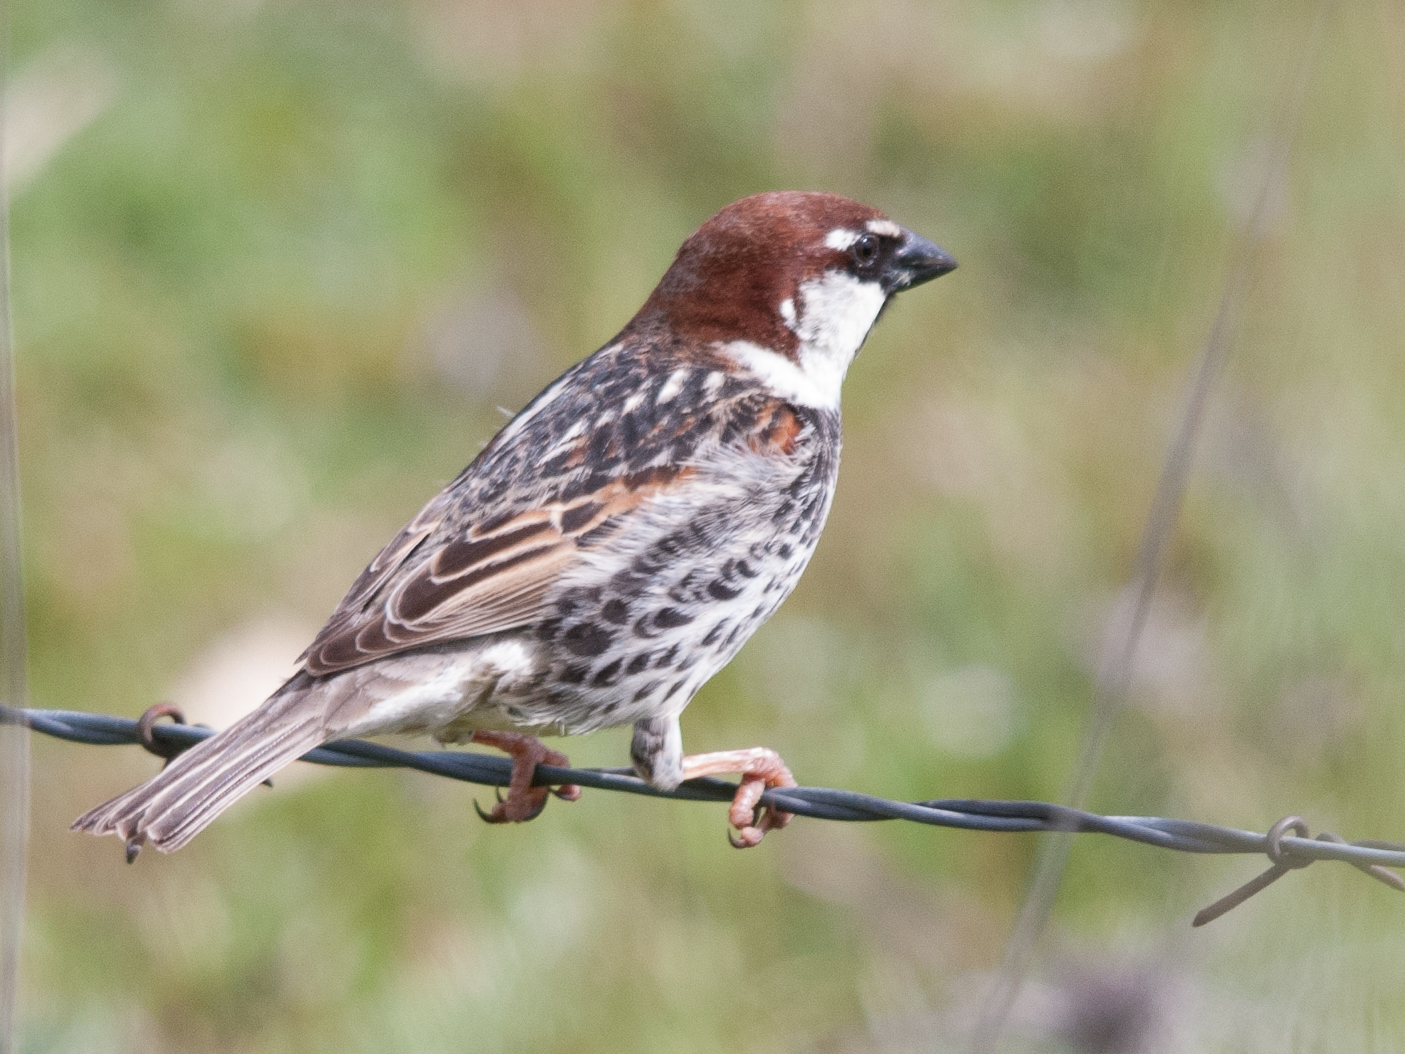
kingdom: Animalia
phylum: Chordata
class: Aves
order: Passeriformes
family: Passeridae
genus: Passer
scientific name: Passer hispaniolensis
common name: Spanish sparrow
